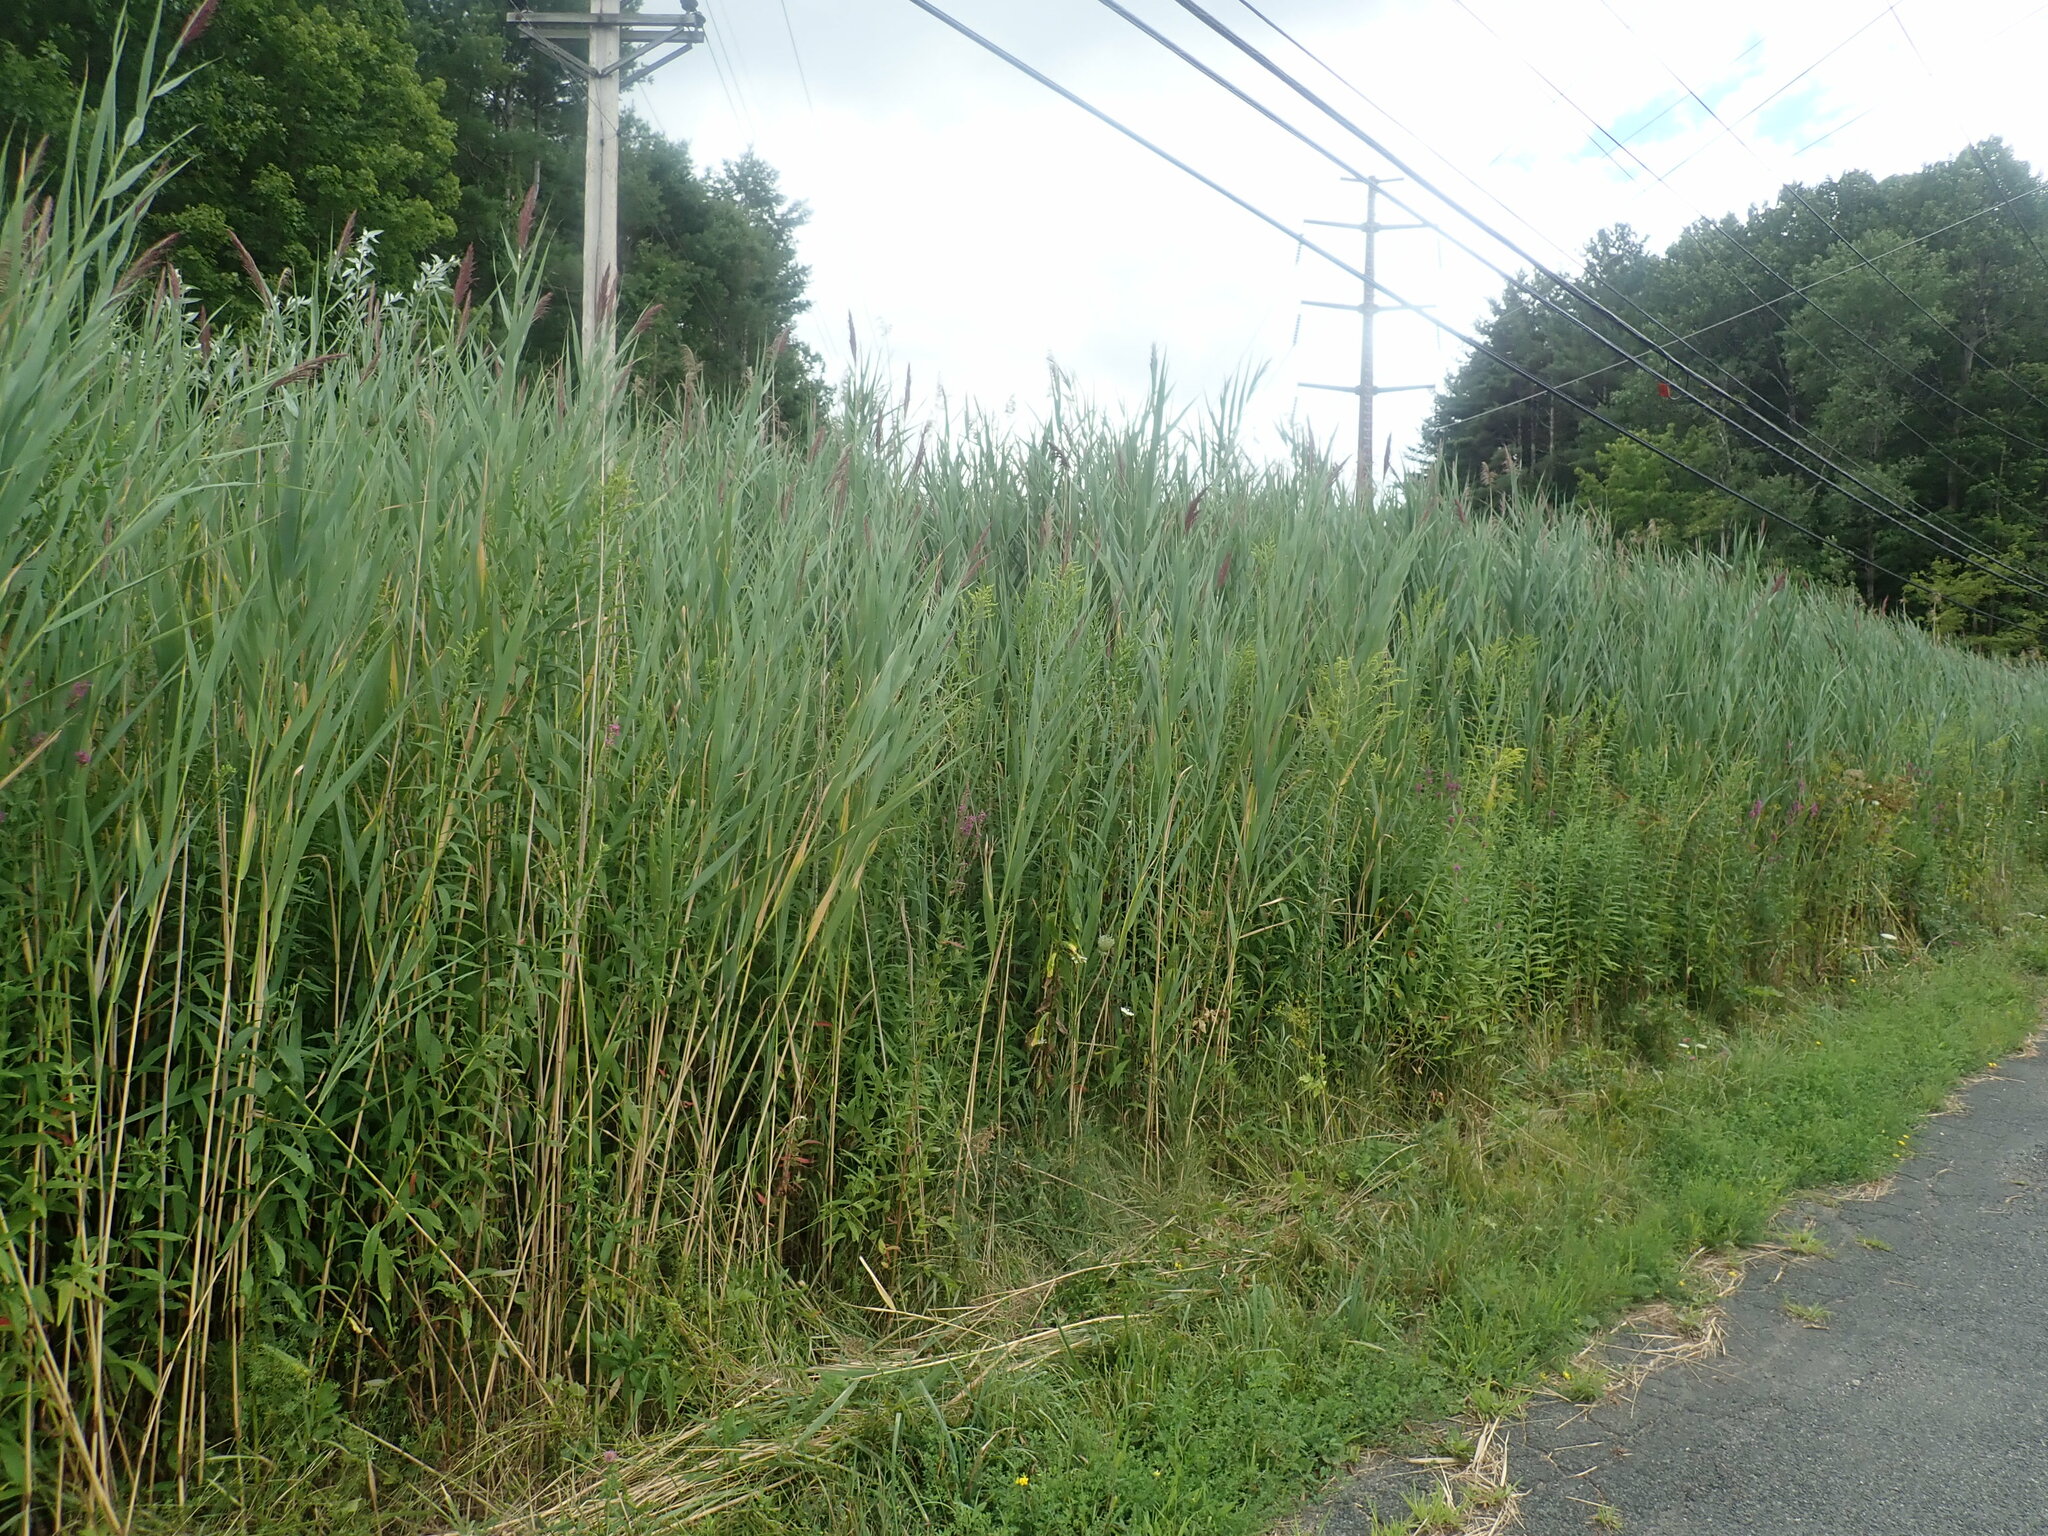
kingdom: Plantae
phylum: Tracheophyta
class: Liliopsida
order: Poales
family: Poaceae
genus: Phragmites
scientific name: Phragmites australis
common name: Common reed
